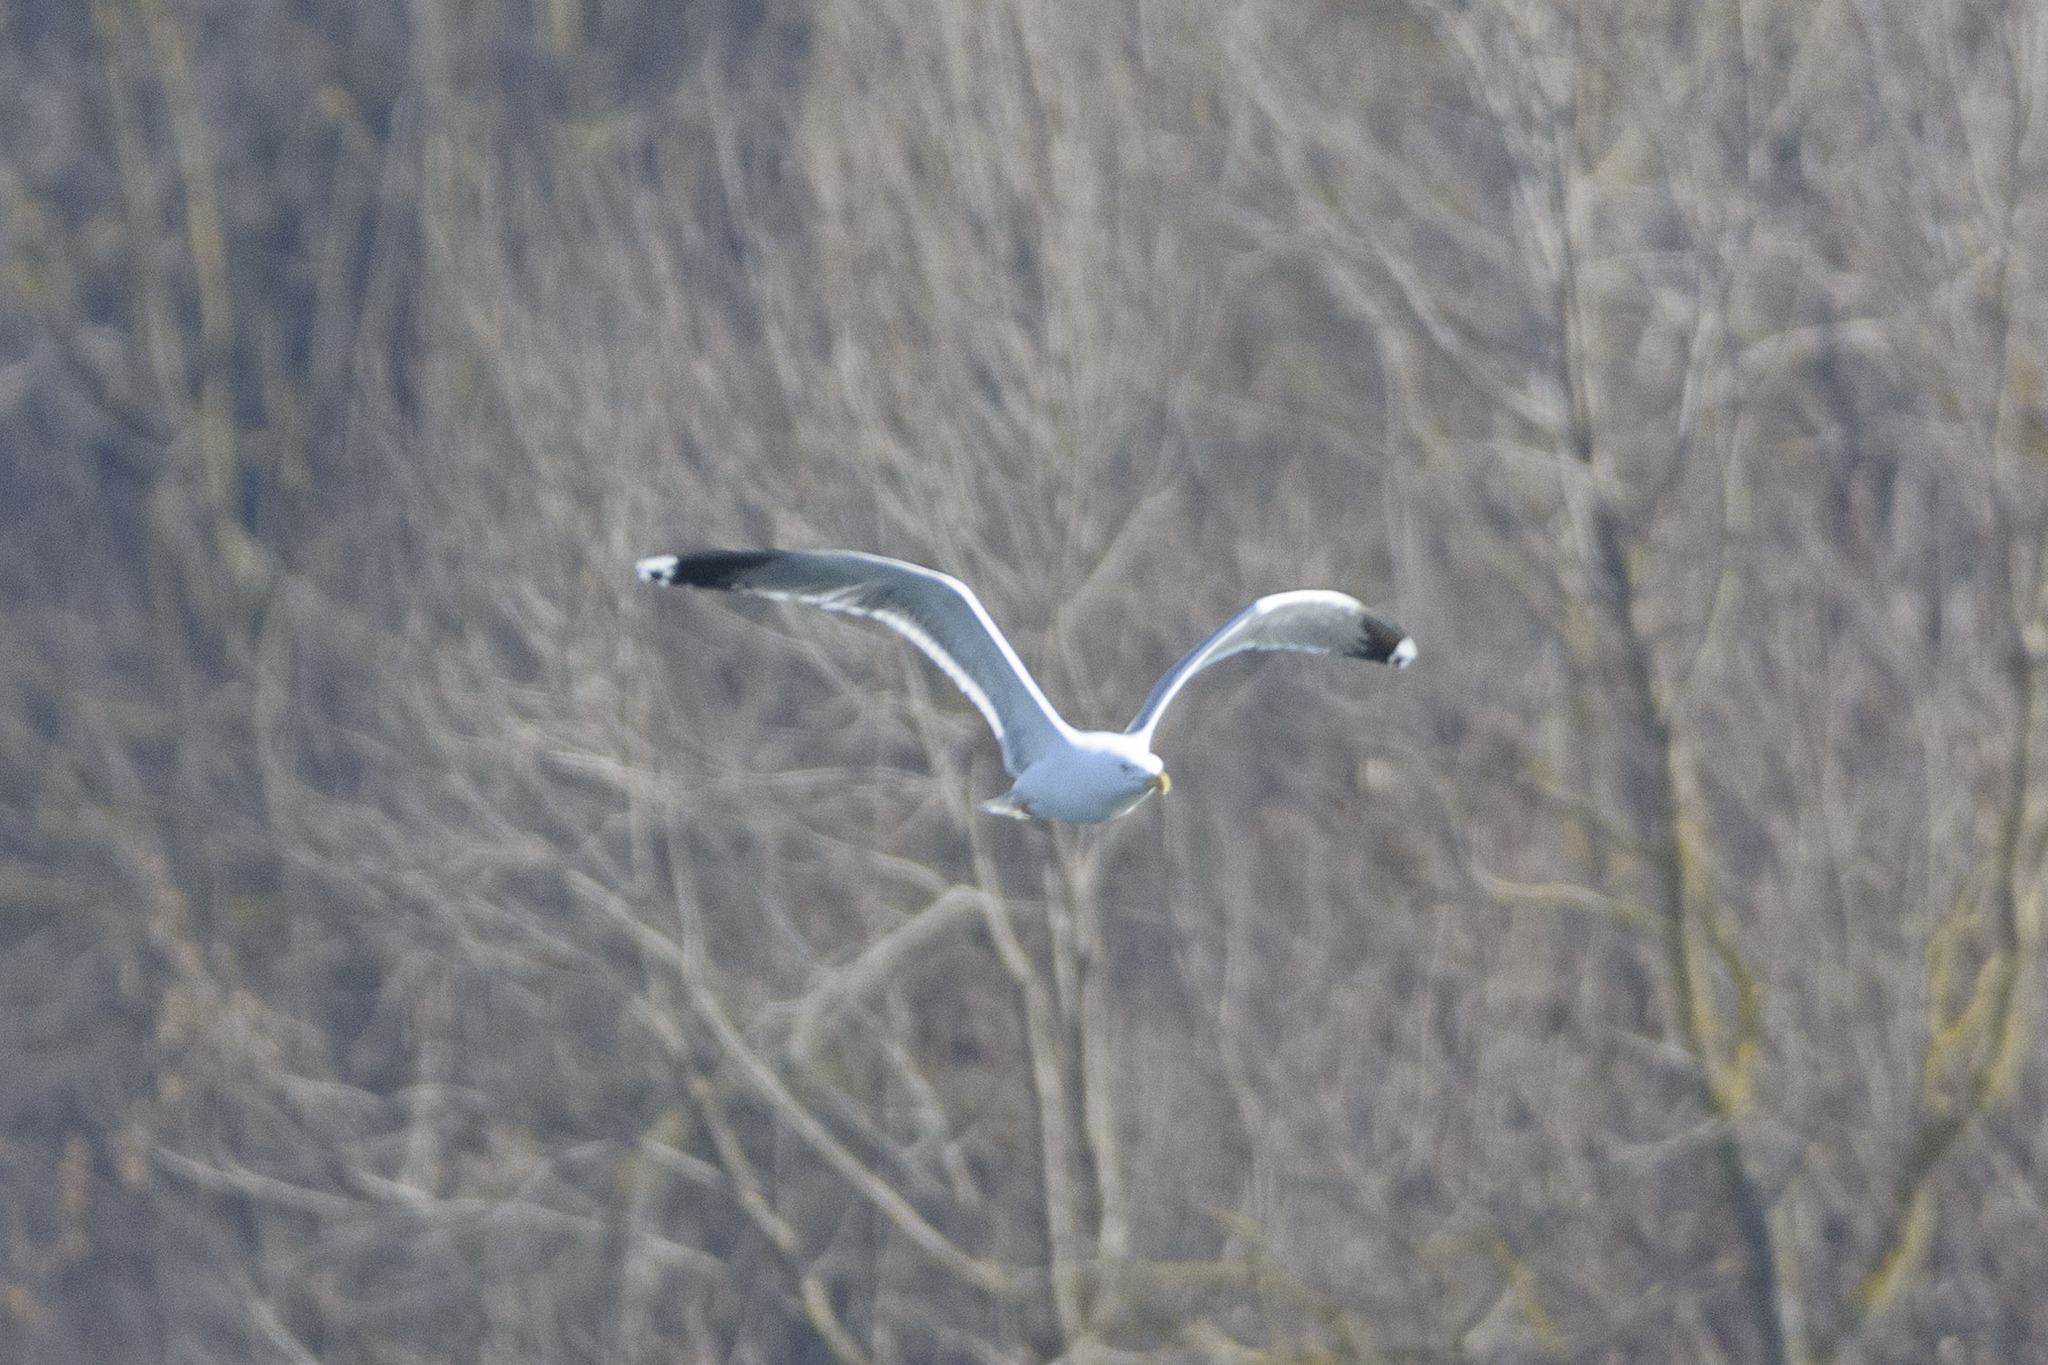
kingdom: Animalia
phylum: Chordata
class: Aves
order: Charadriiformes
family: Laridae
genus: Larus
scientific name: Larus michahellis
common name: Yellow-legged gull
